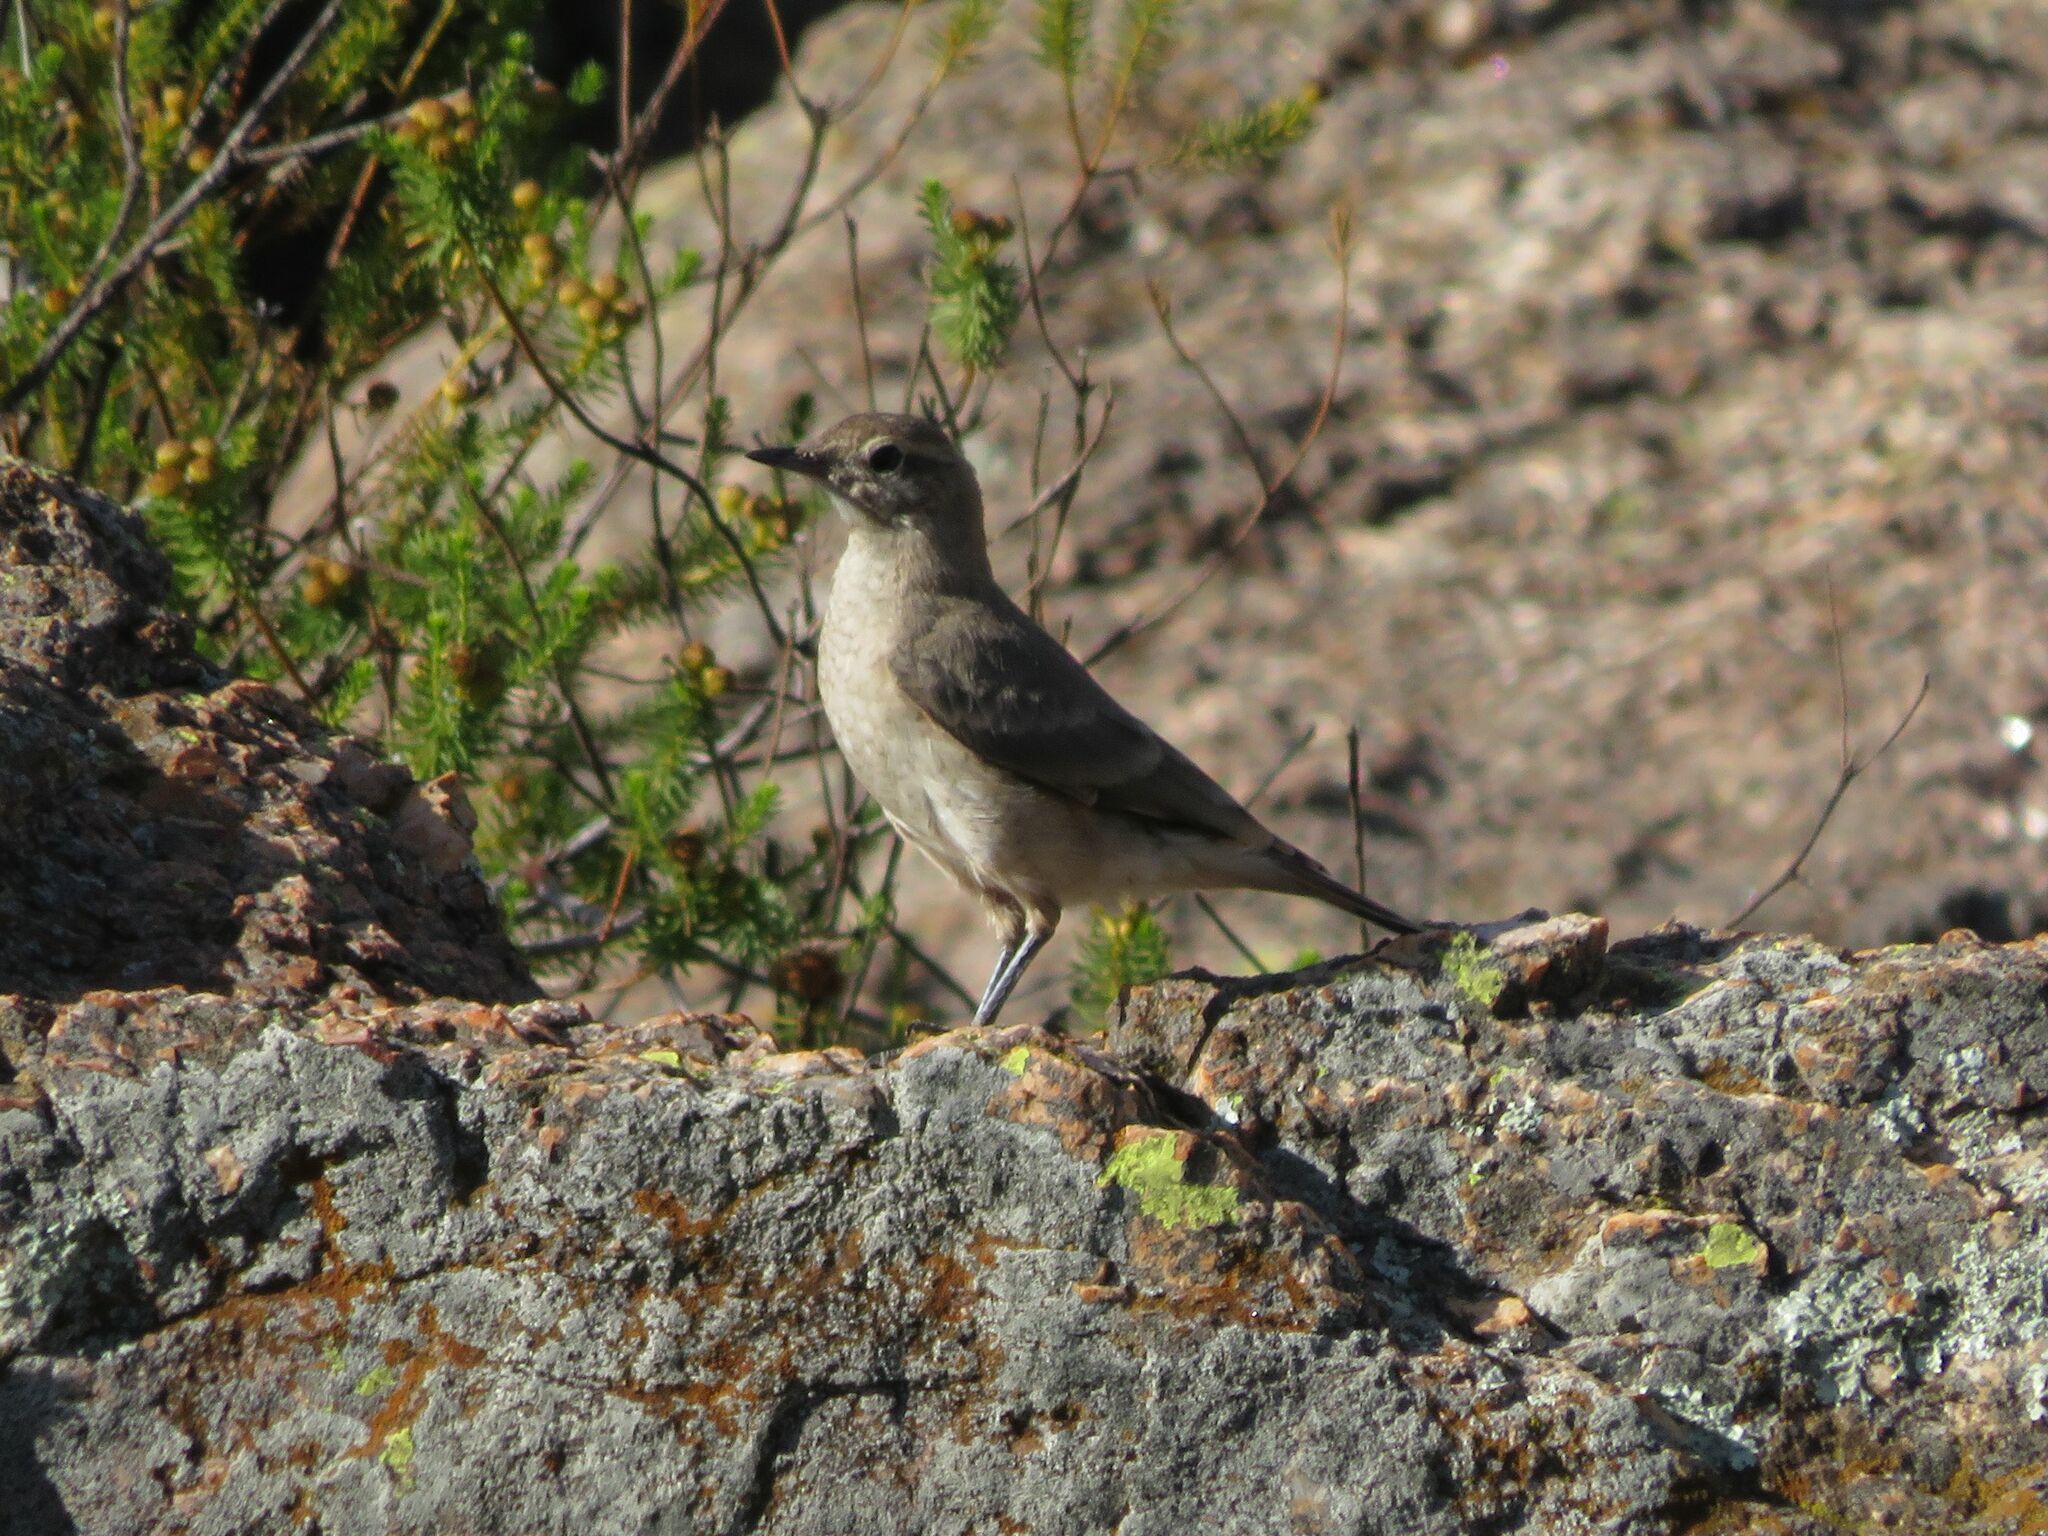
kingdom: Animalia
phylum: Chordata
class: Aves
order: Passeriformes
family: Furnariidae
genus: Geositta
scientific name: Geositta rufipennis
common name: Rufous-banded miner
